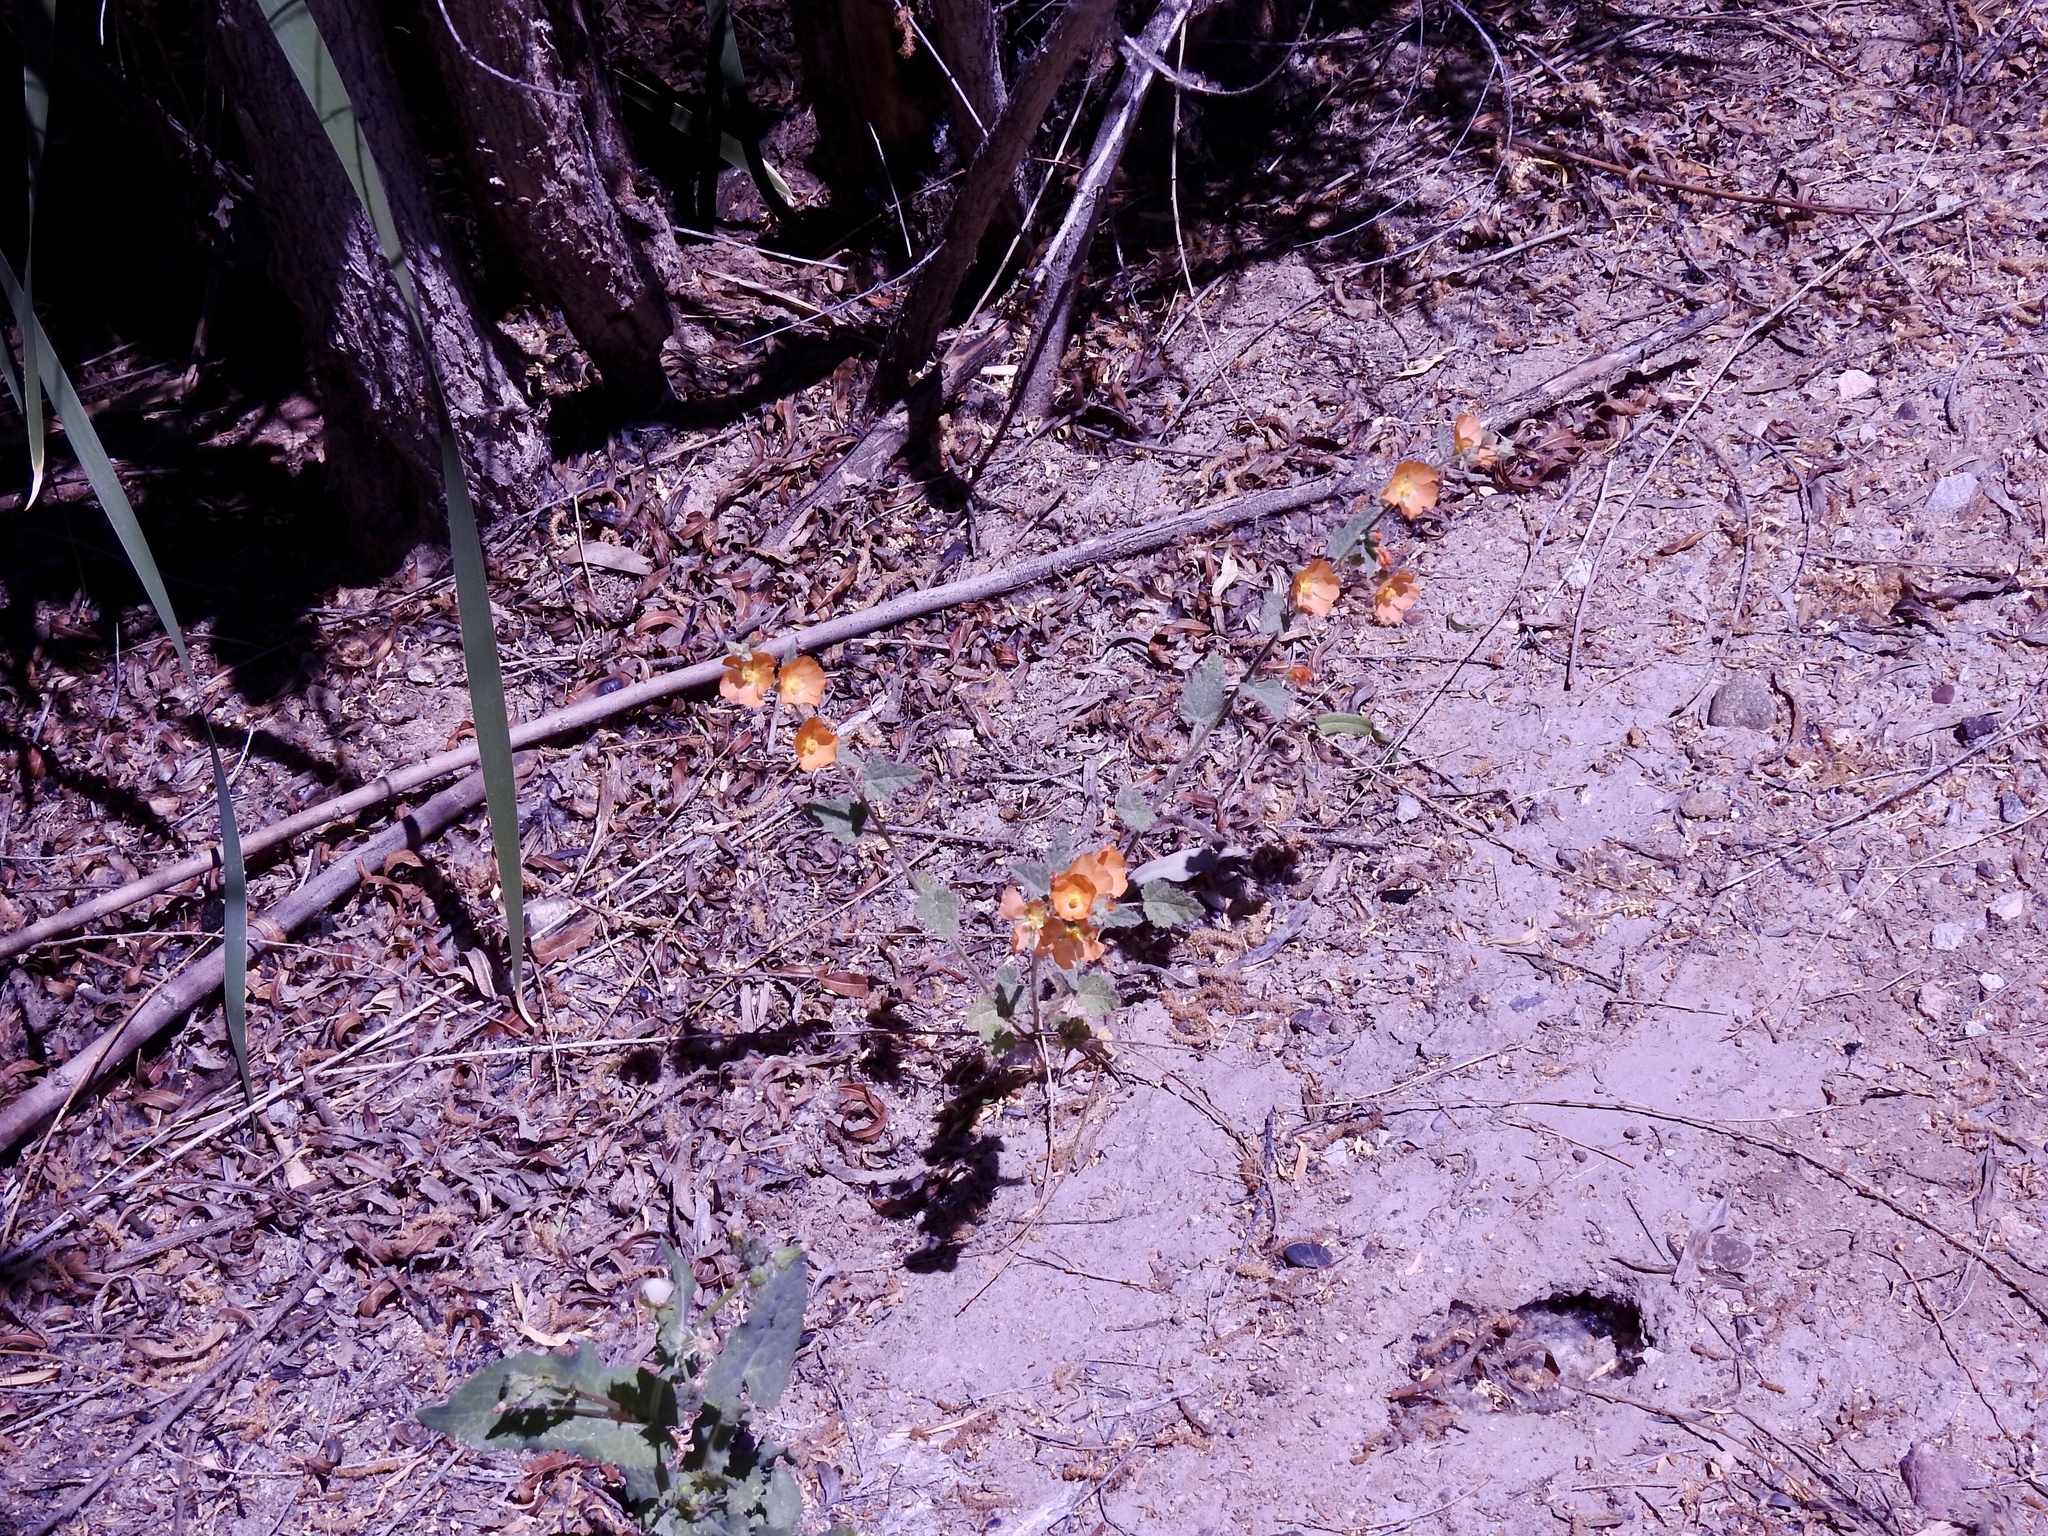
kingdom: Plantae
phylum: Tracheophyta
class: Magnoliopsida
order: Malvales
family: Malvaceae
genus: Sphaeralcea
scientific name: Sphaeralcea coulteri
